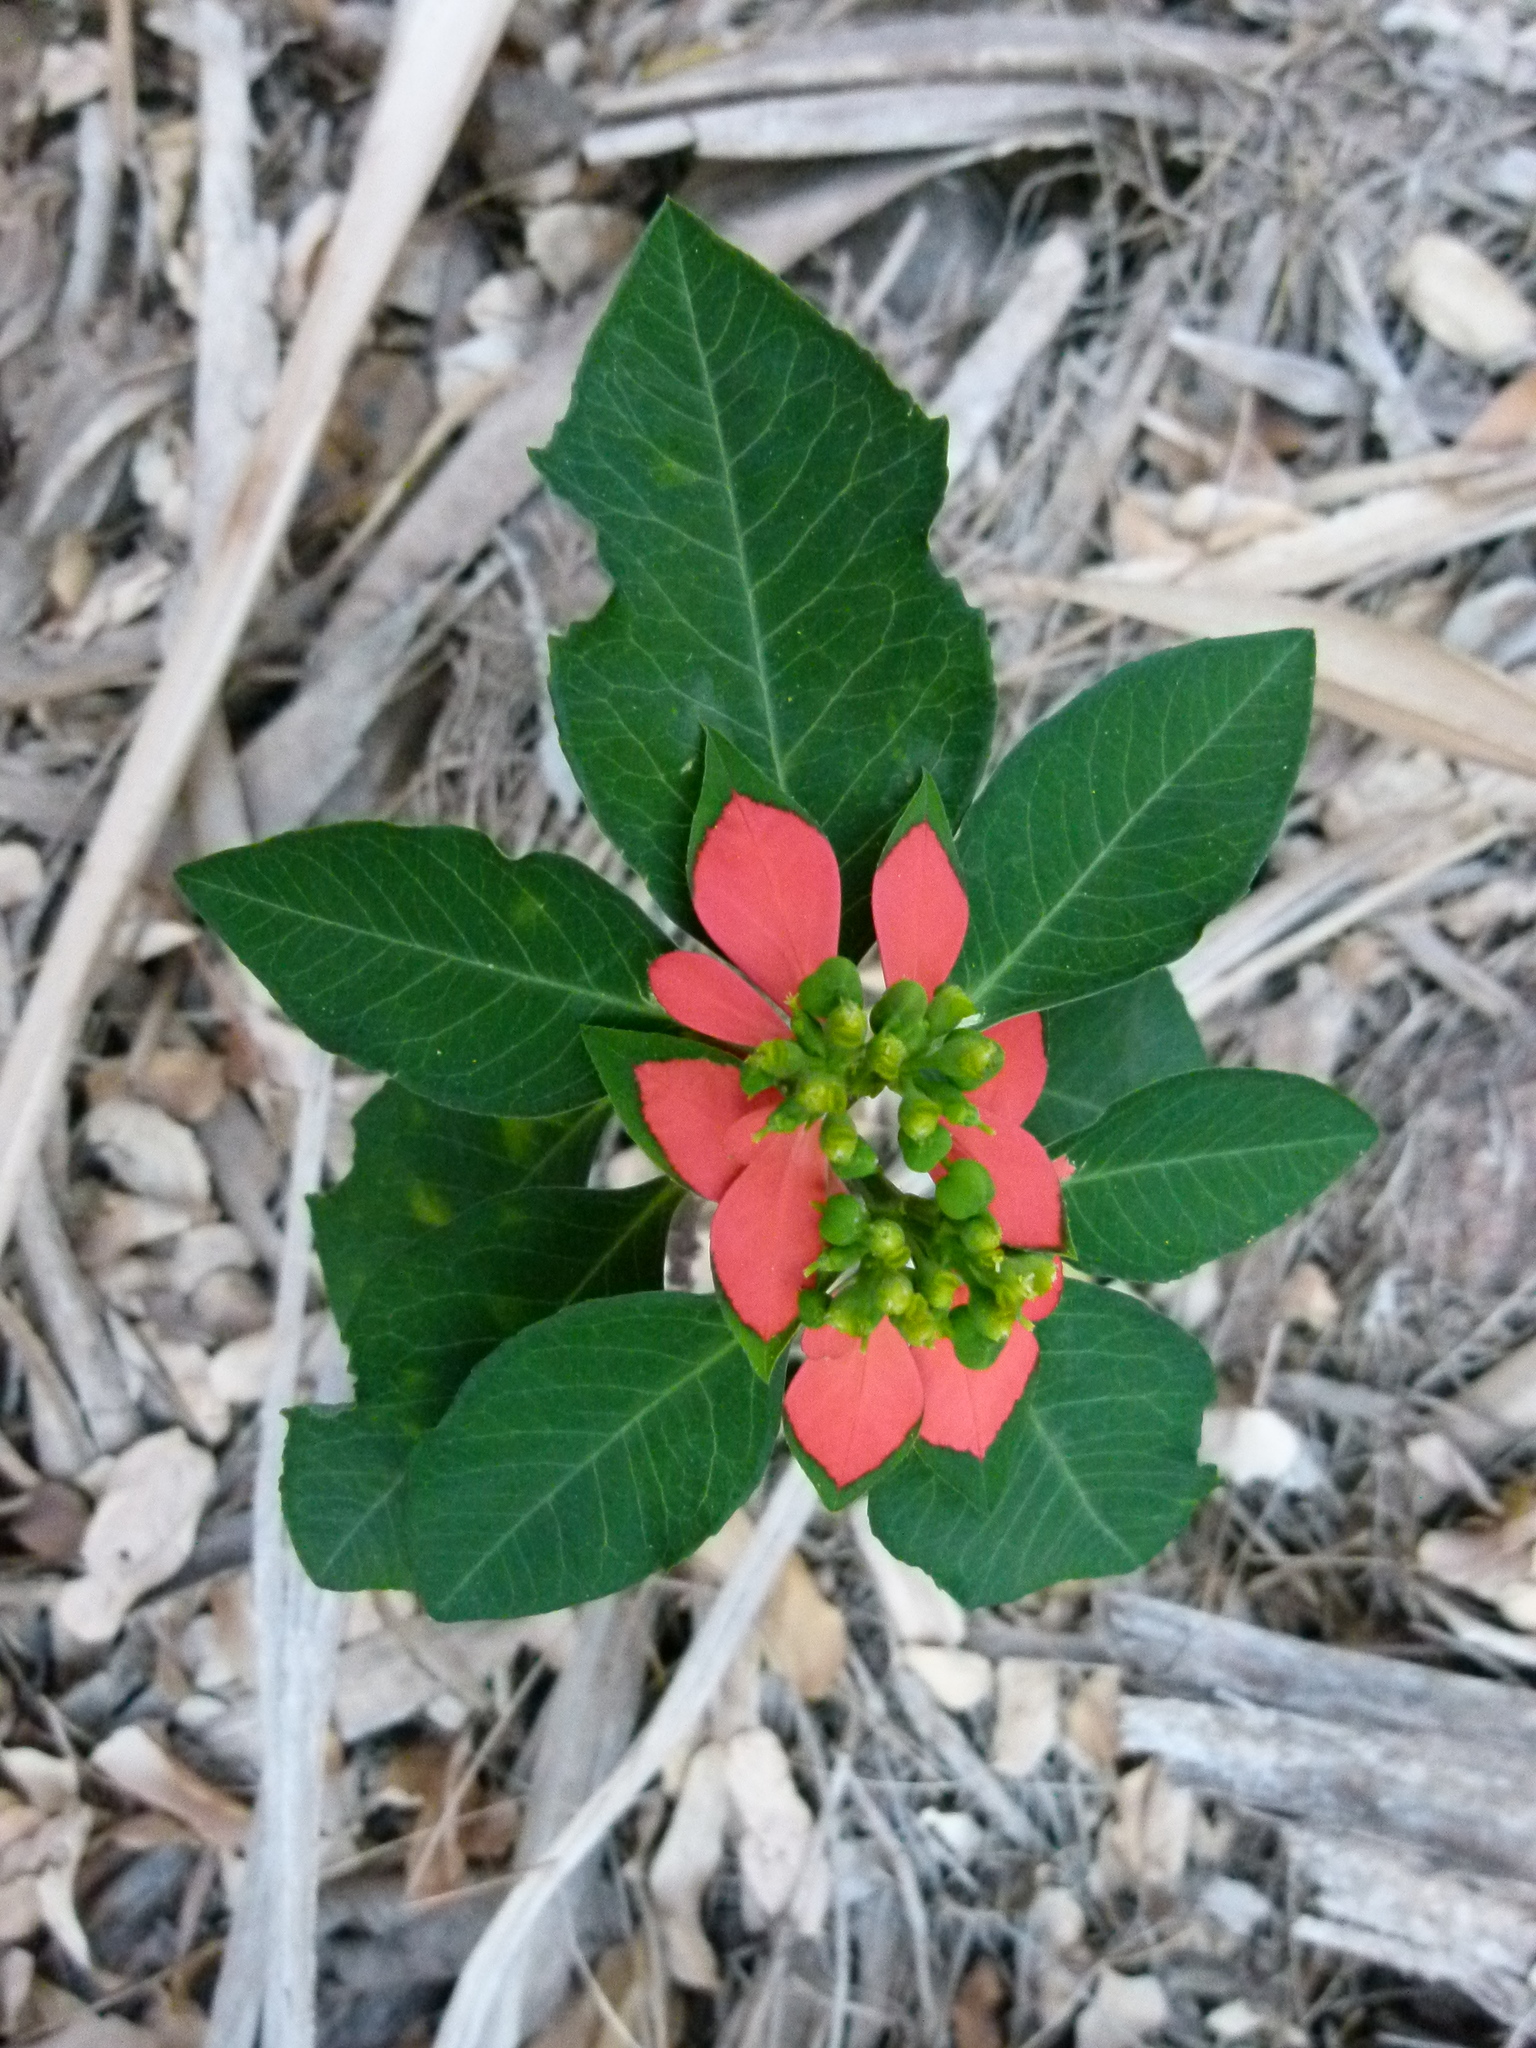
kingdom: Plantae
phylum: Tracheophyta
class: Magnoliopsida
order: Malpighiales
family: Euphorbiaceae
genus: Euphorbia
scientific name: Euphorbia heterophylla
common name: Mexican fireplant
